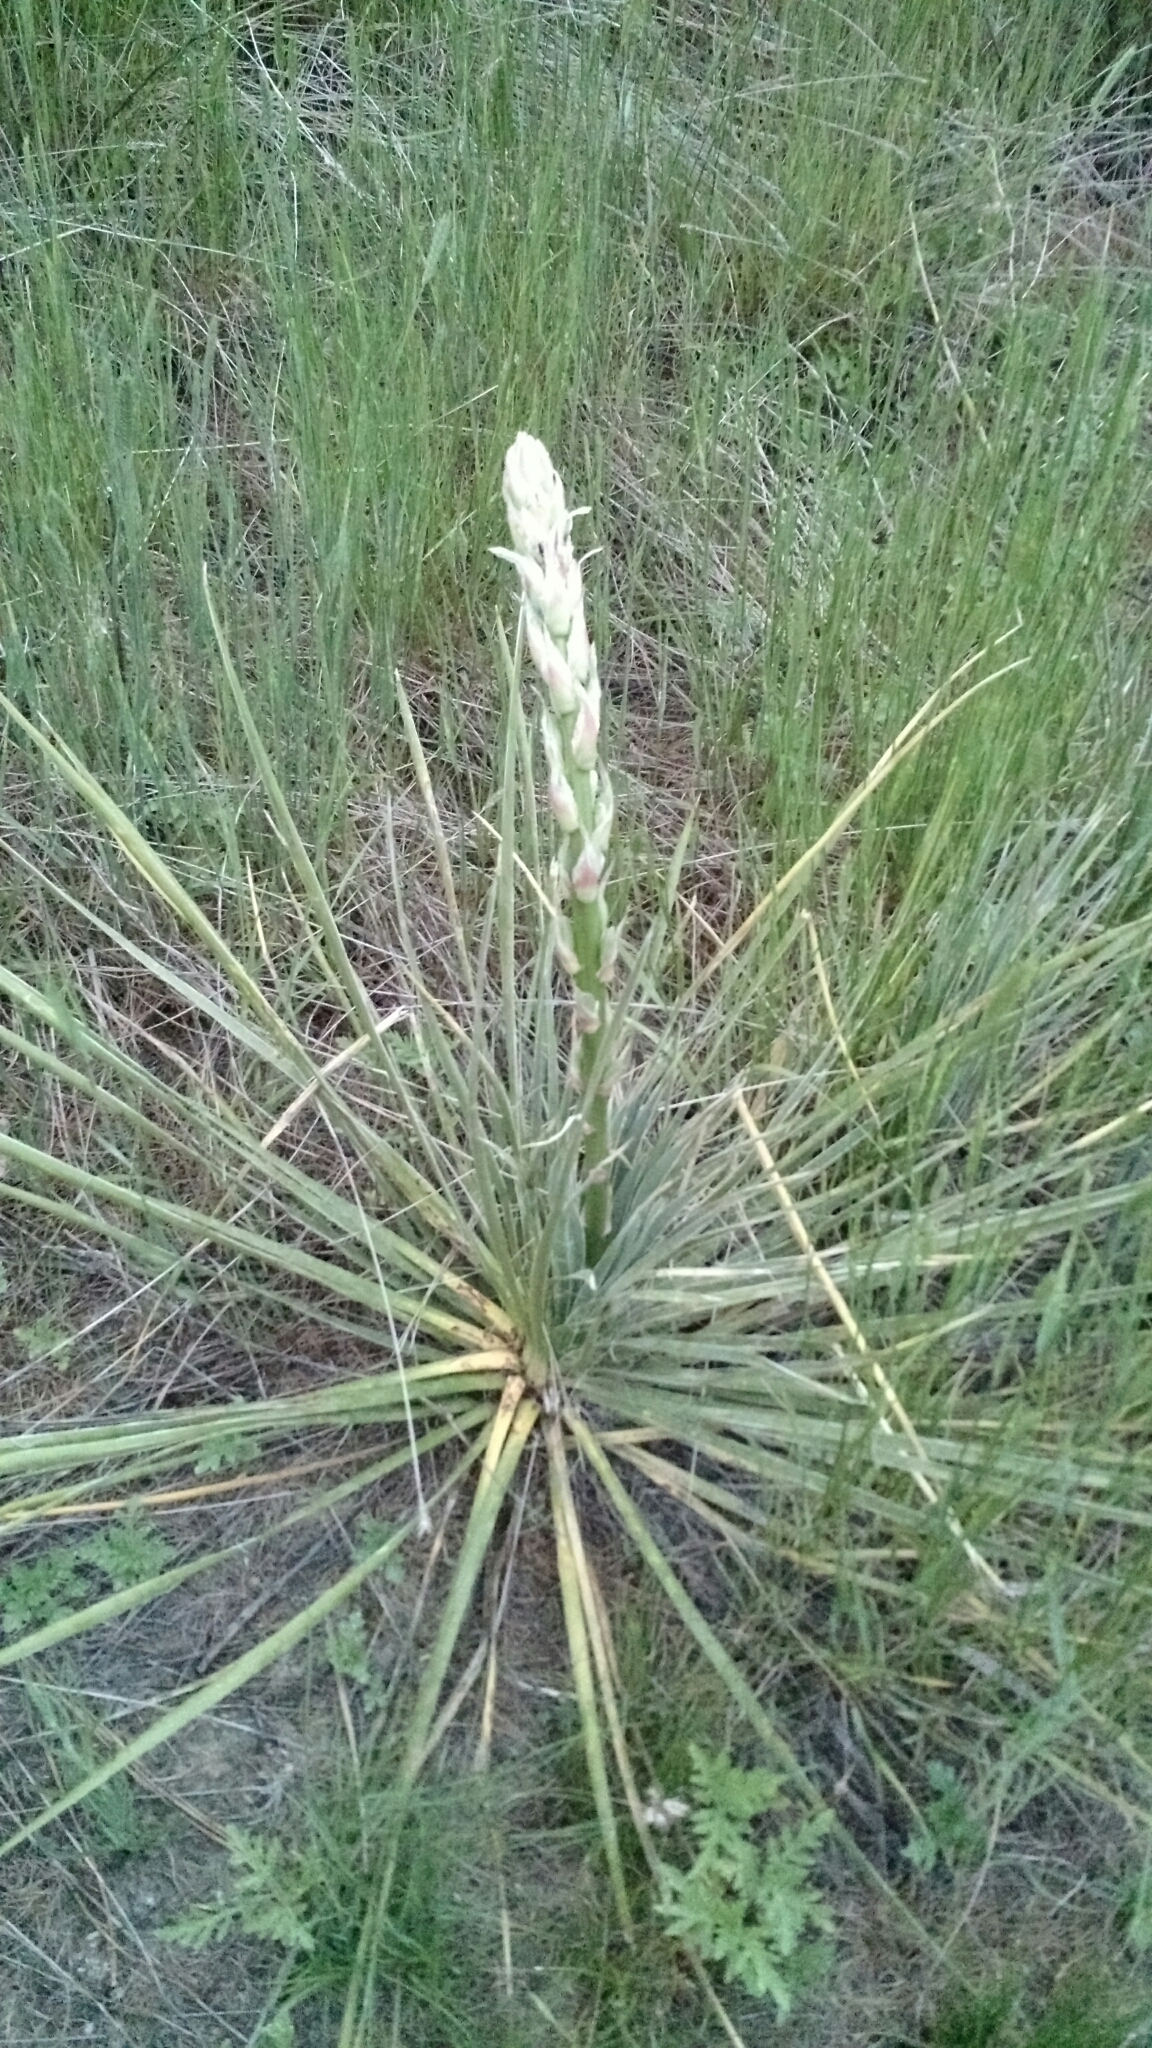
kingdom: Plantae
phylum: Tracheophyta
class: Liliopsida
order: Asparagales
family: Asparagaceae
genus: Yucca
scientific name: Yucca glauca
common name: Great plains yucca
